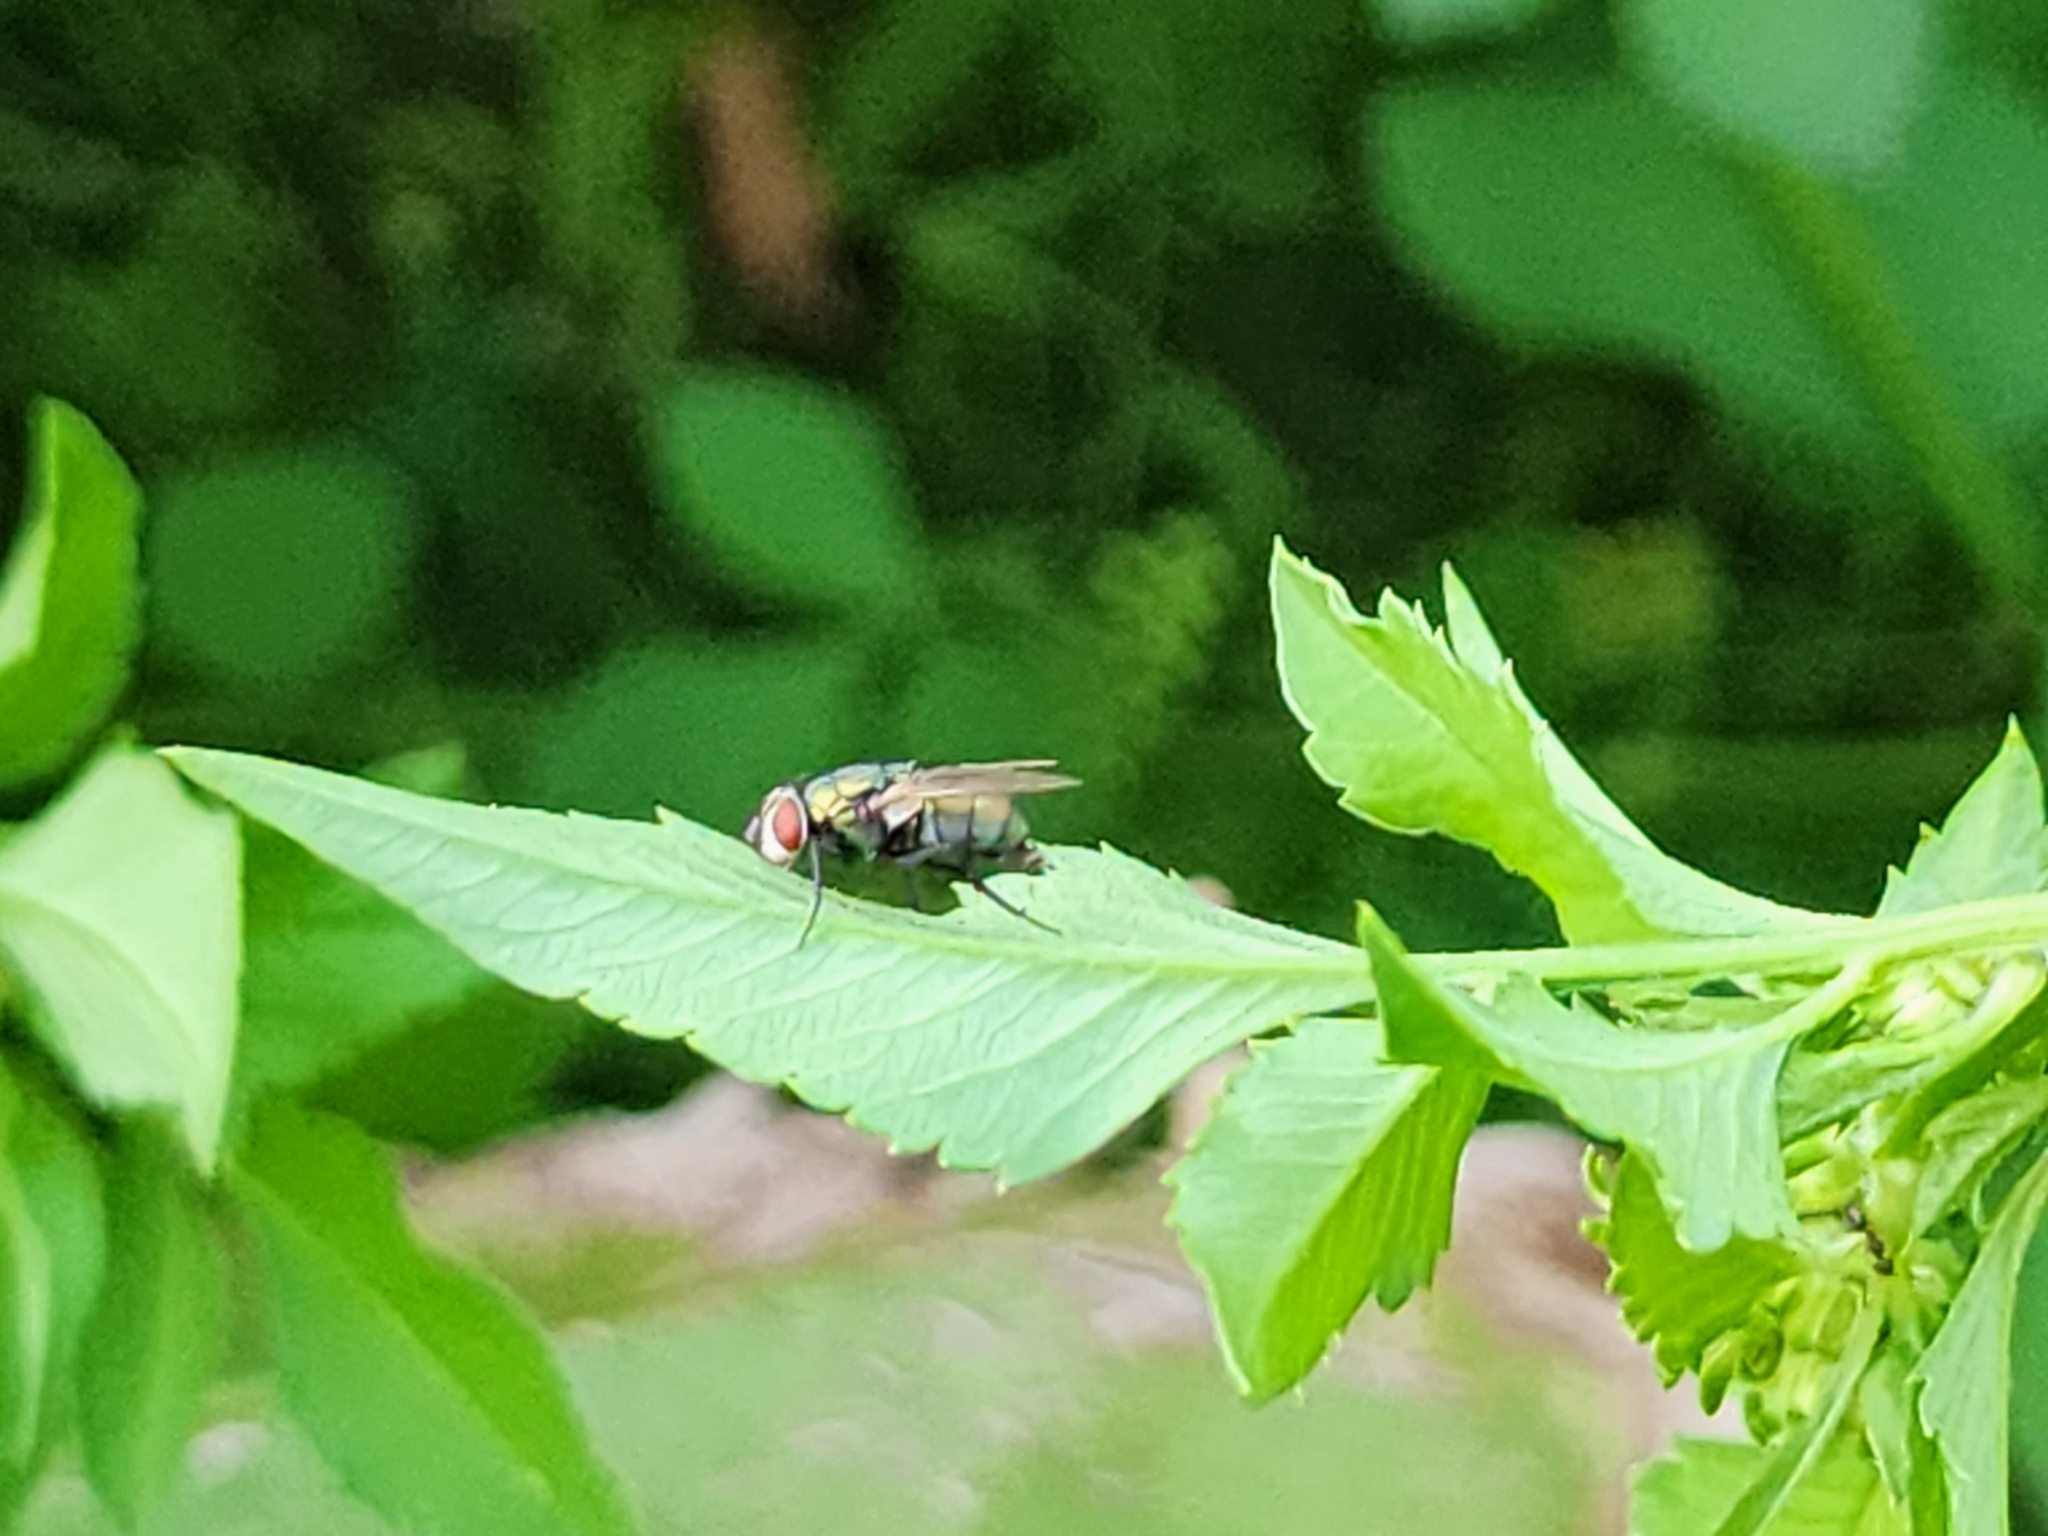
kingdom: Animalia
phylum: Arthropoda
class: Insecta
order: Diptera
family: Calliphoridae
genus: Lucilia
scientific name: Lucilia sericata
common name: Blow fly
